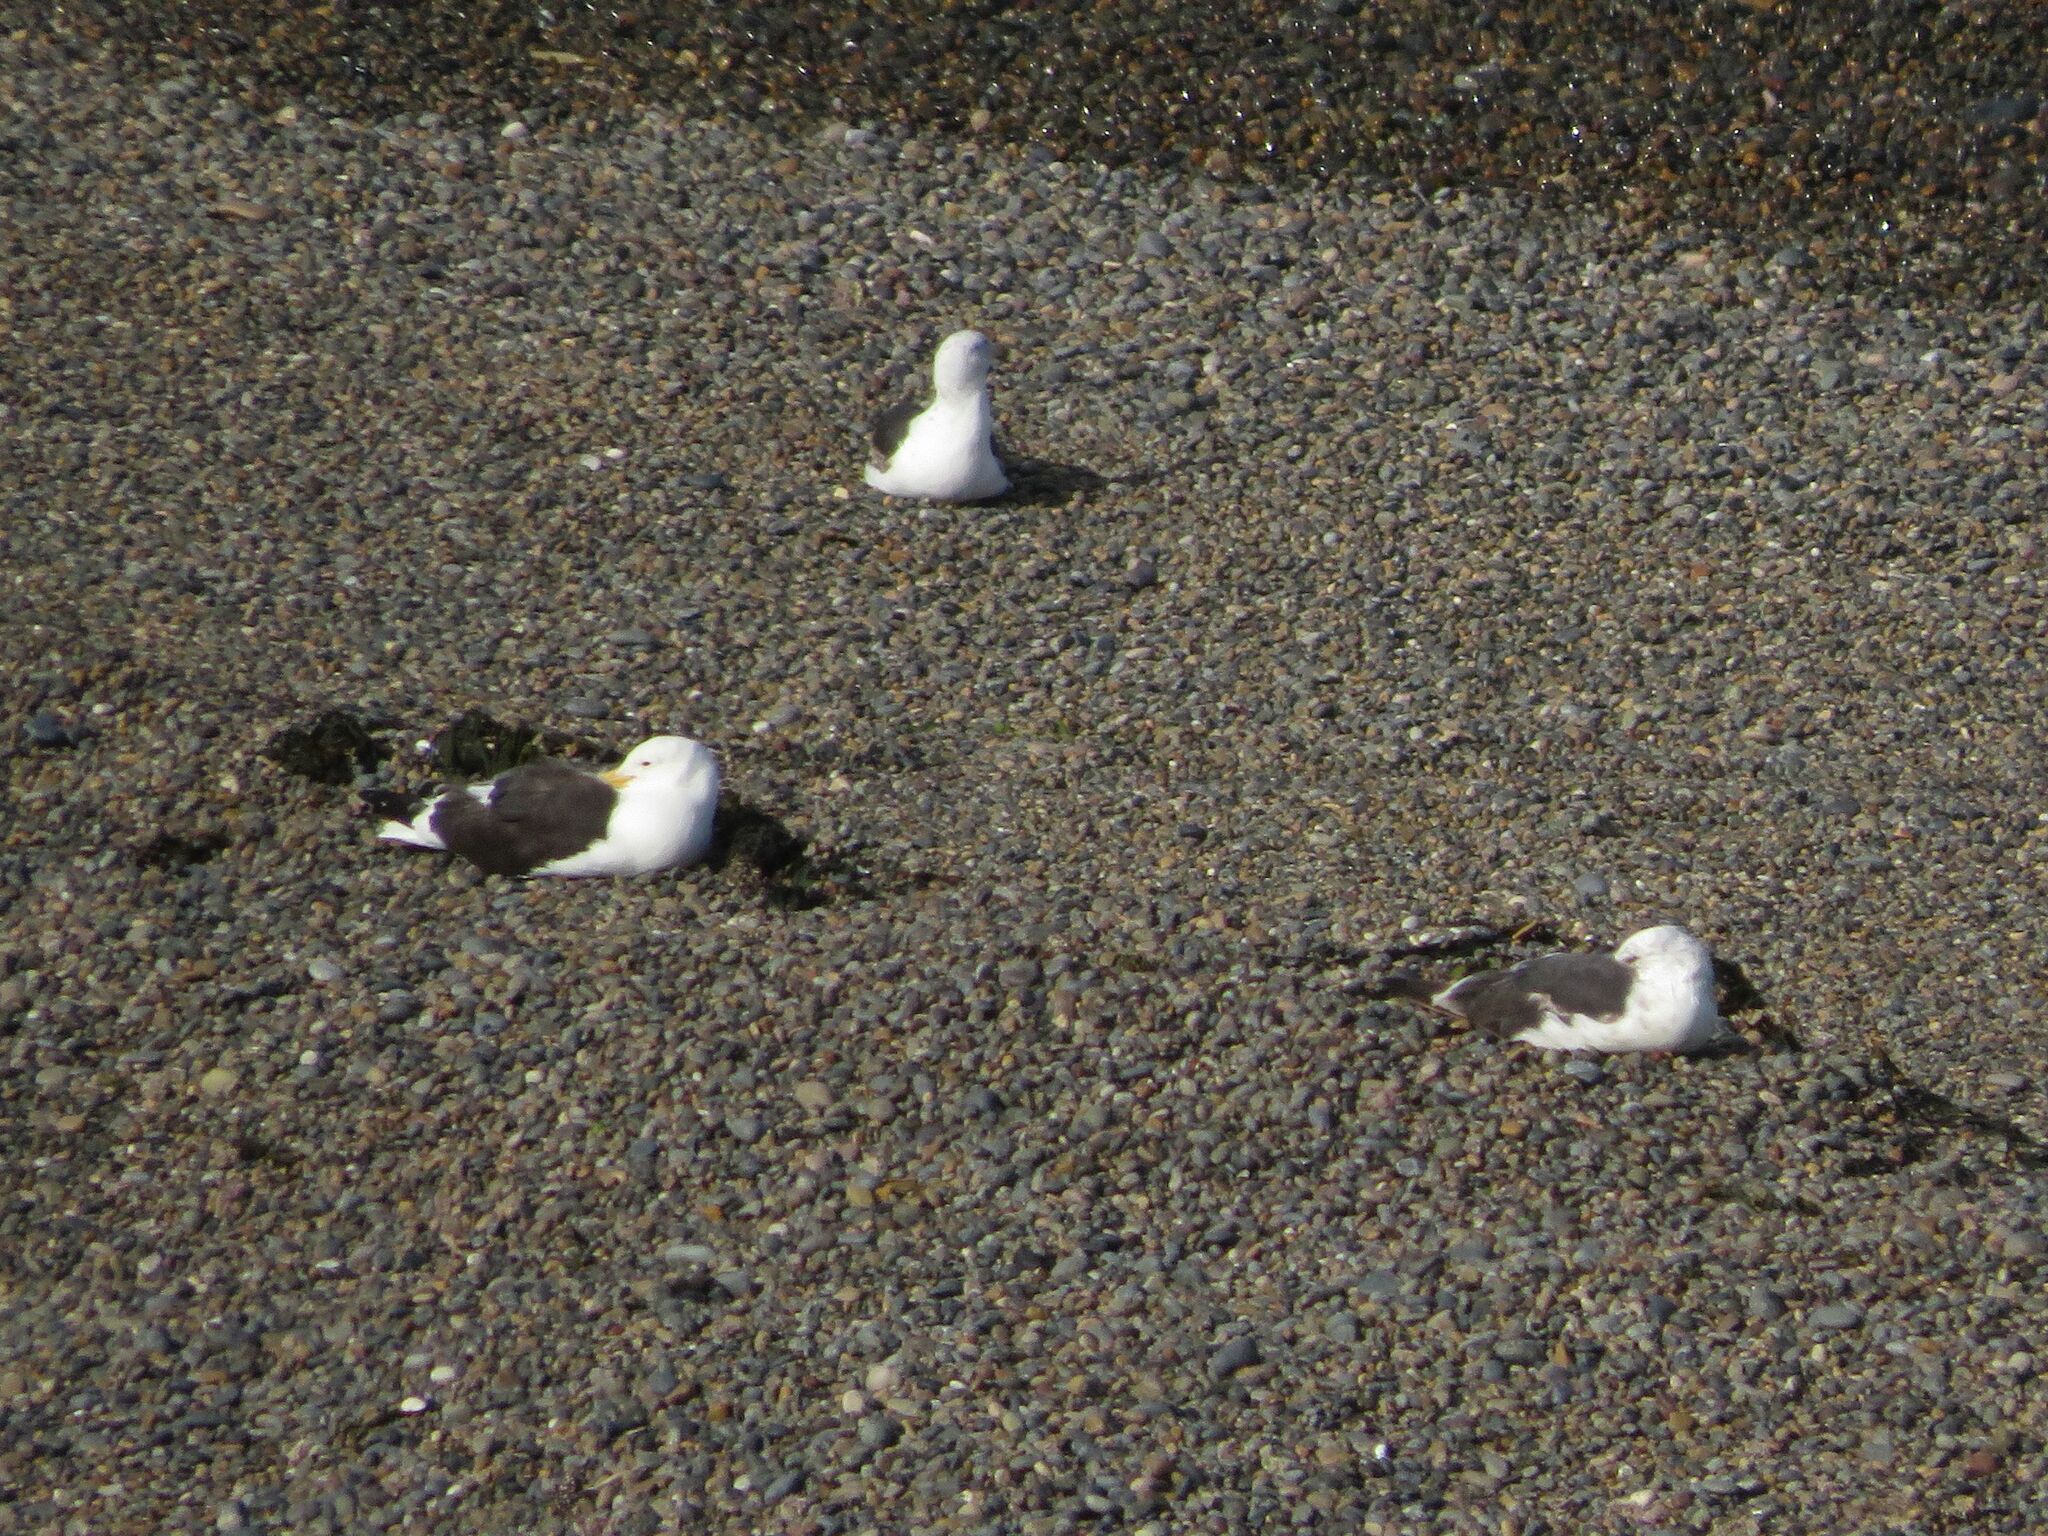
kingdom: Animalia
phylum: Chordata
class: Aves
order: Charadriiformes
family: Laridae
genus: Larus
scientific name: Larus dominicanus
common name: Kelp gull
